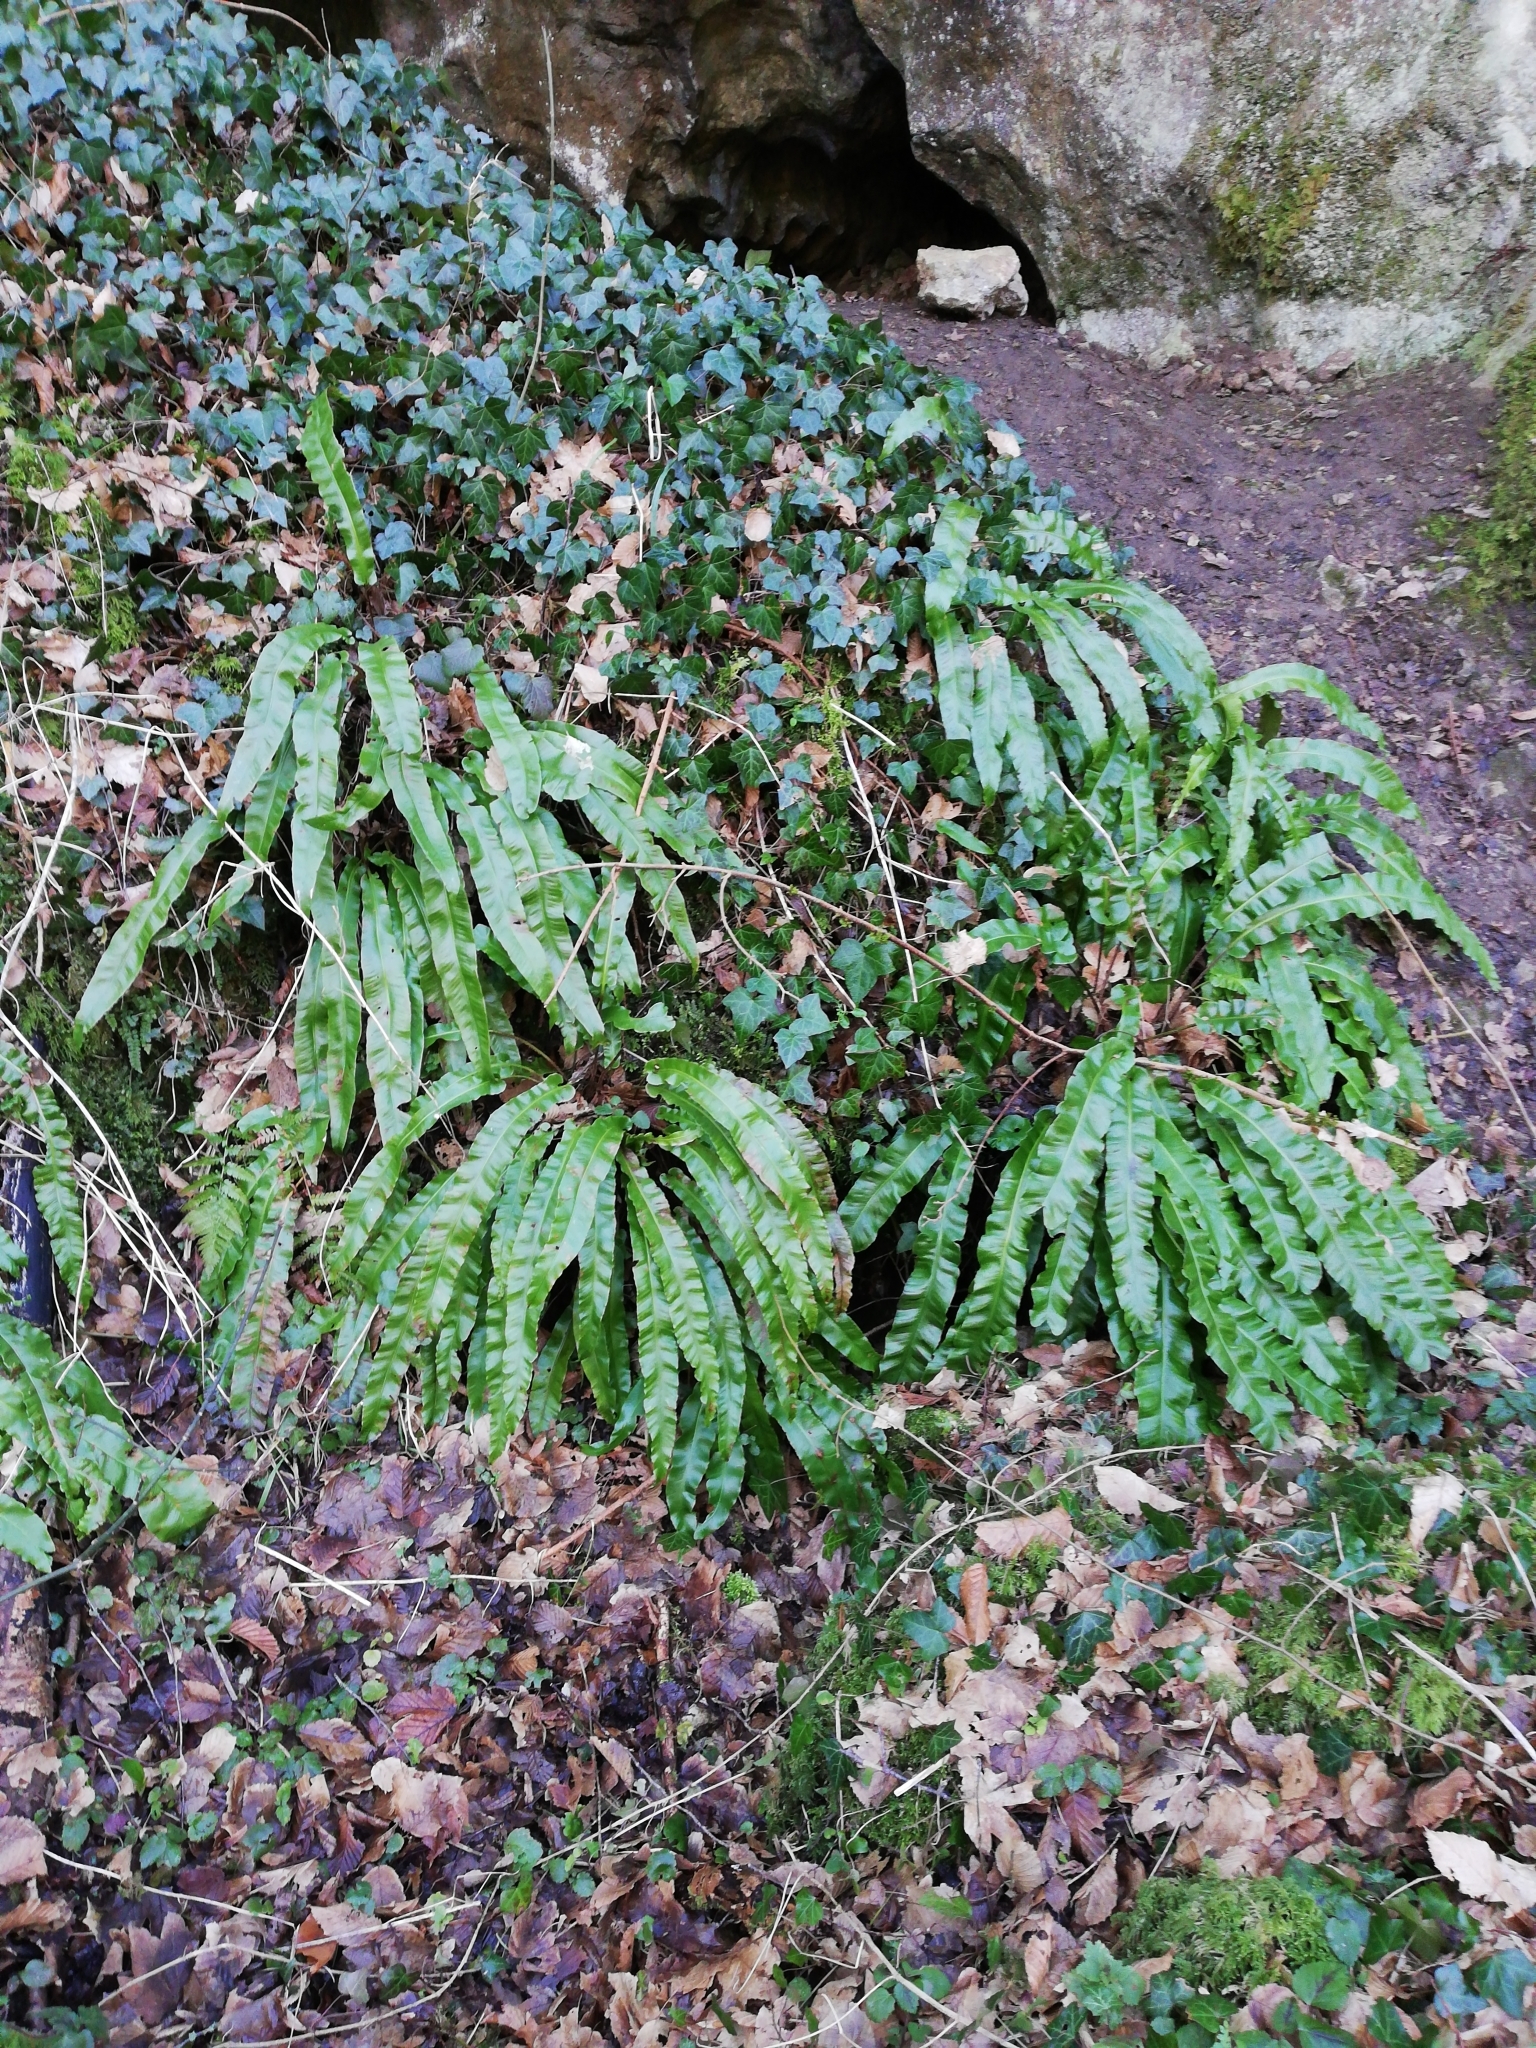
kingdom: Plantae
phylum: Tracheophyta
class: Polypodiopsida
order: Polypodiales
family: Aspleniaceae
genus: Asplenium
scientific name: Asplenium scolopendrium
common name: Hart's-tongue fern
